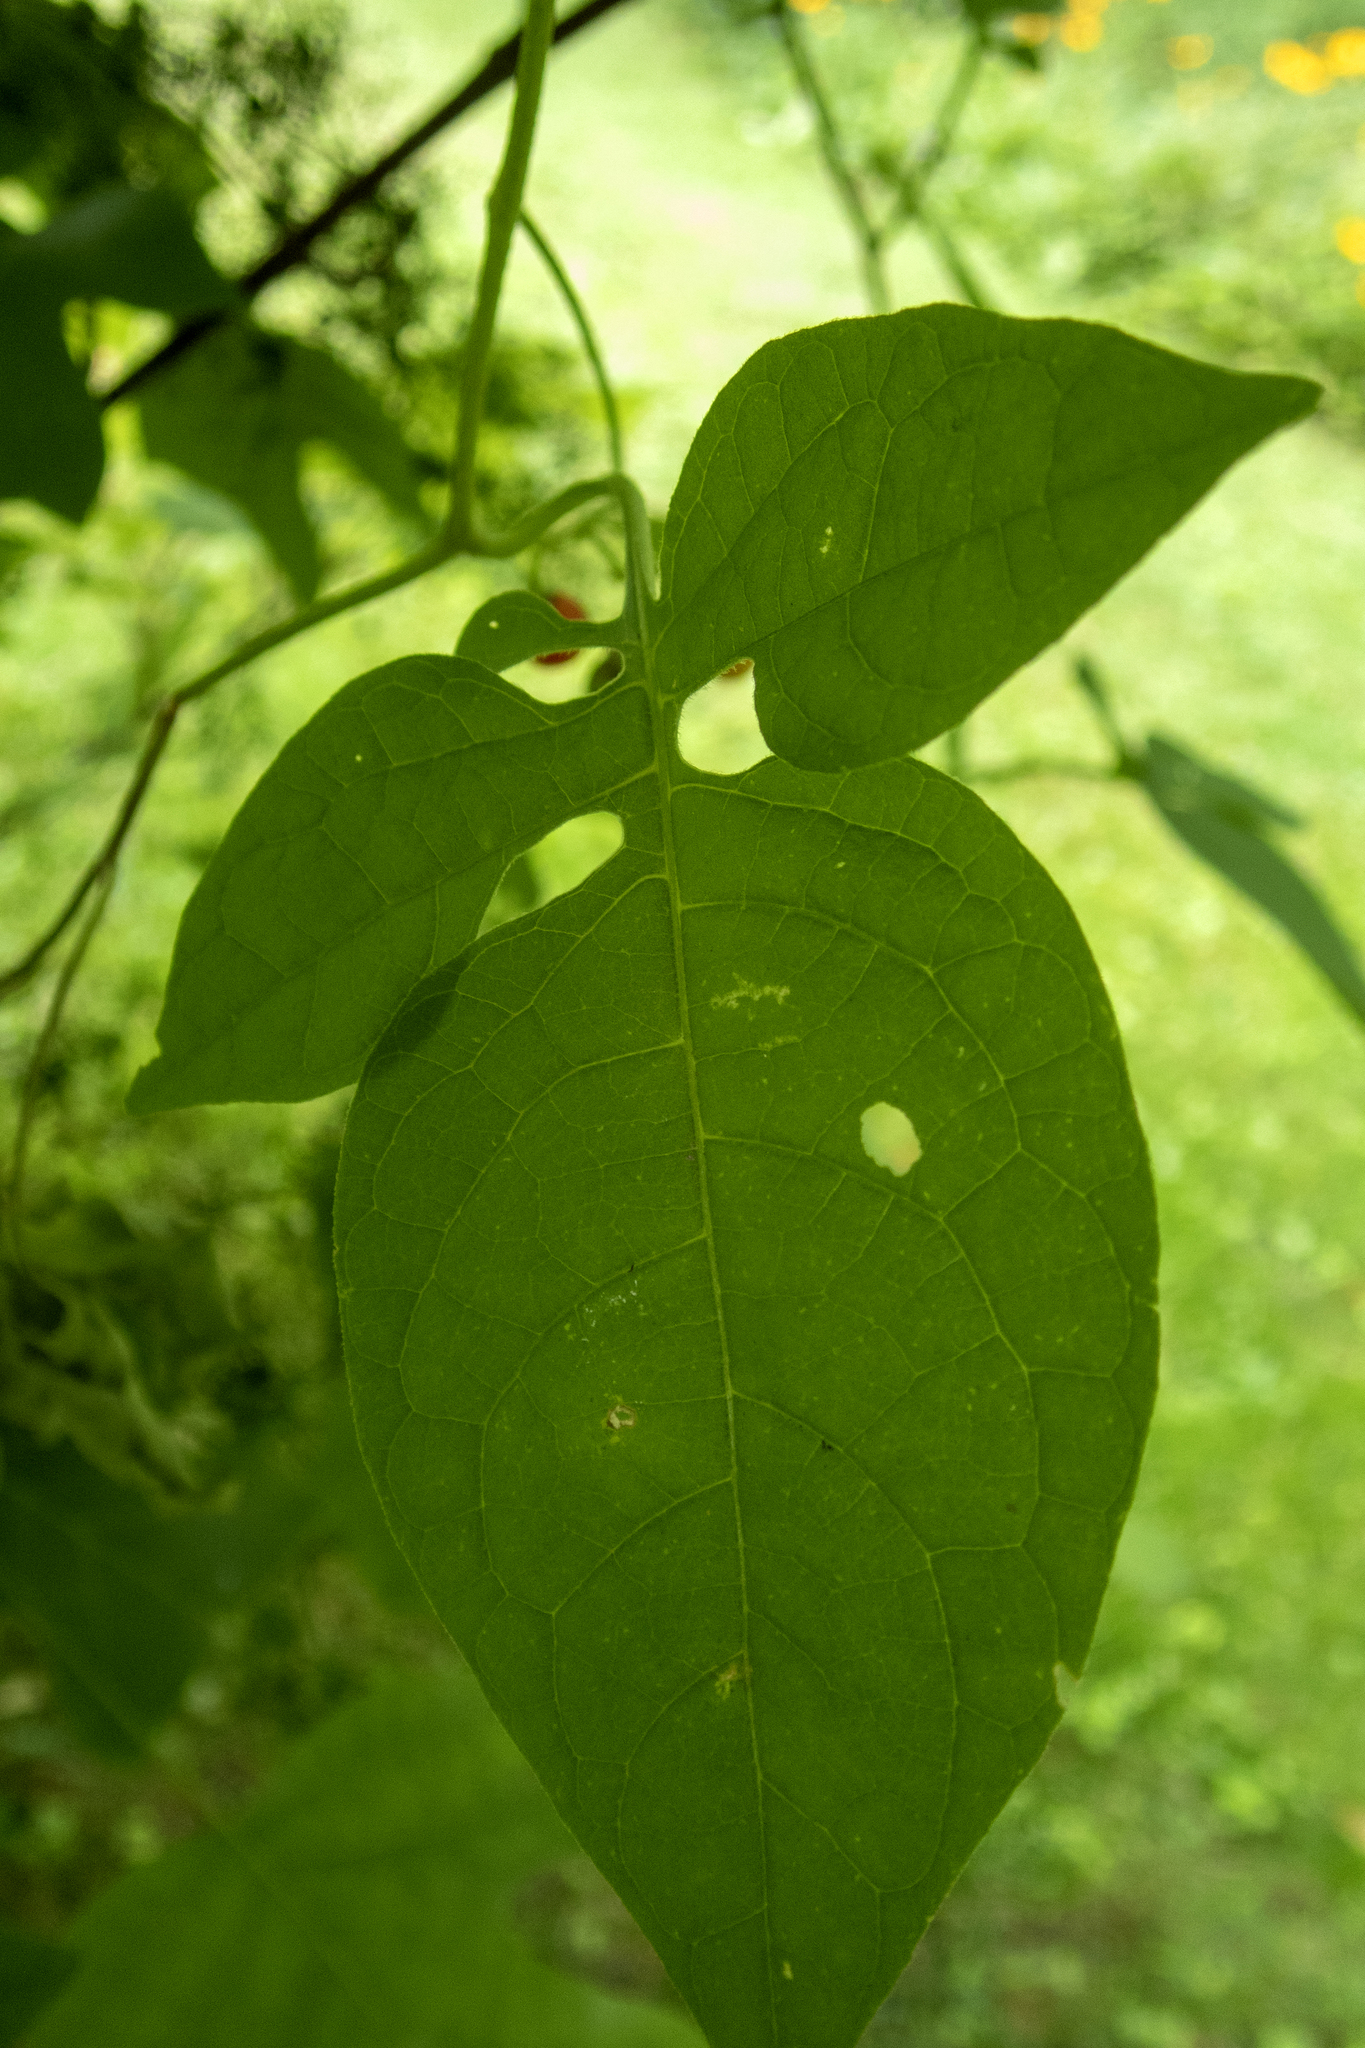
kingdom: Plantae
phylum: Tracheophyta
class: Magnoliopsida
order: Solanales
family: Solanaceae
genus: Solanum
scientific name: Solanum dulcamara
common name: Climbing nightshade
